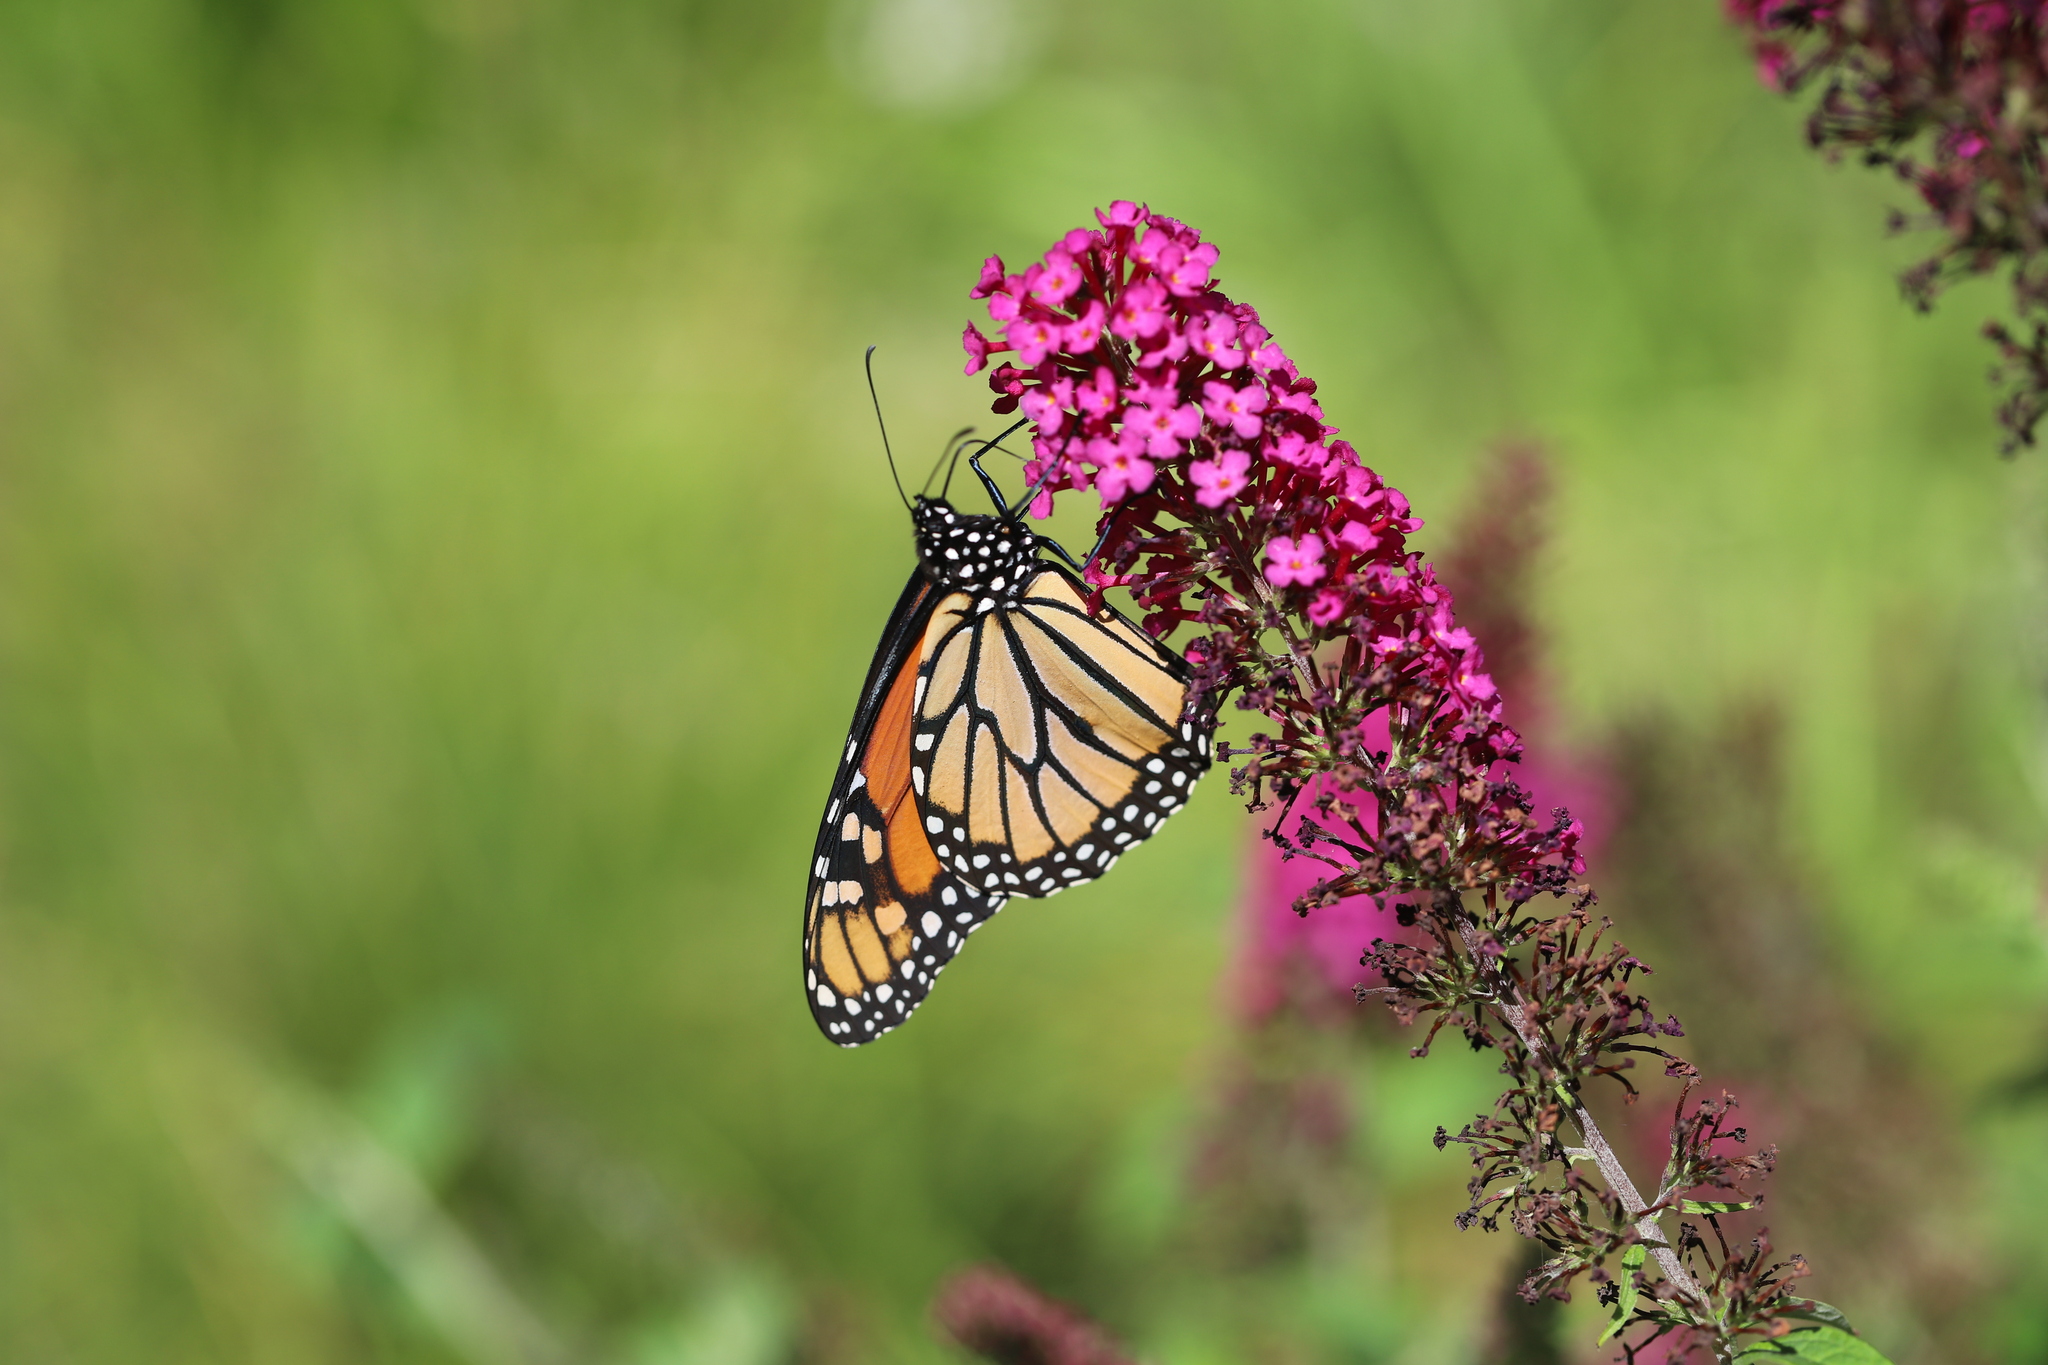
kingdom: Animalia
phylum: Arthropoda
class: Insecta
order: Lepidoptera
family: Nymphalidae
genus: Danaus
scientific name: Danaus plexippus
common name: Monarch
